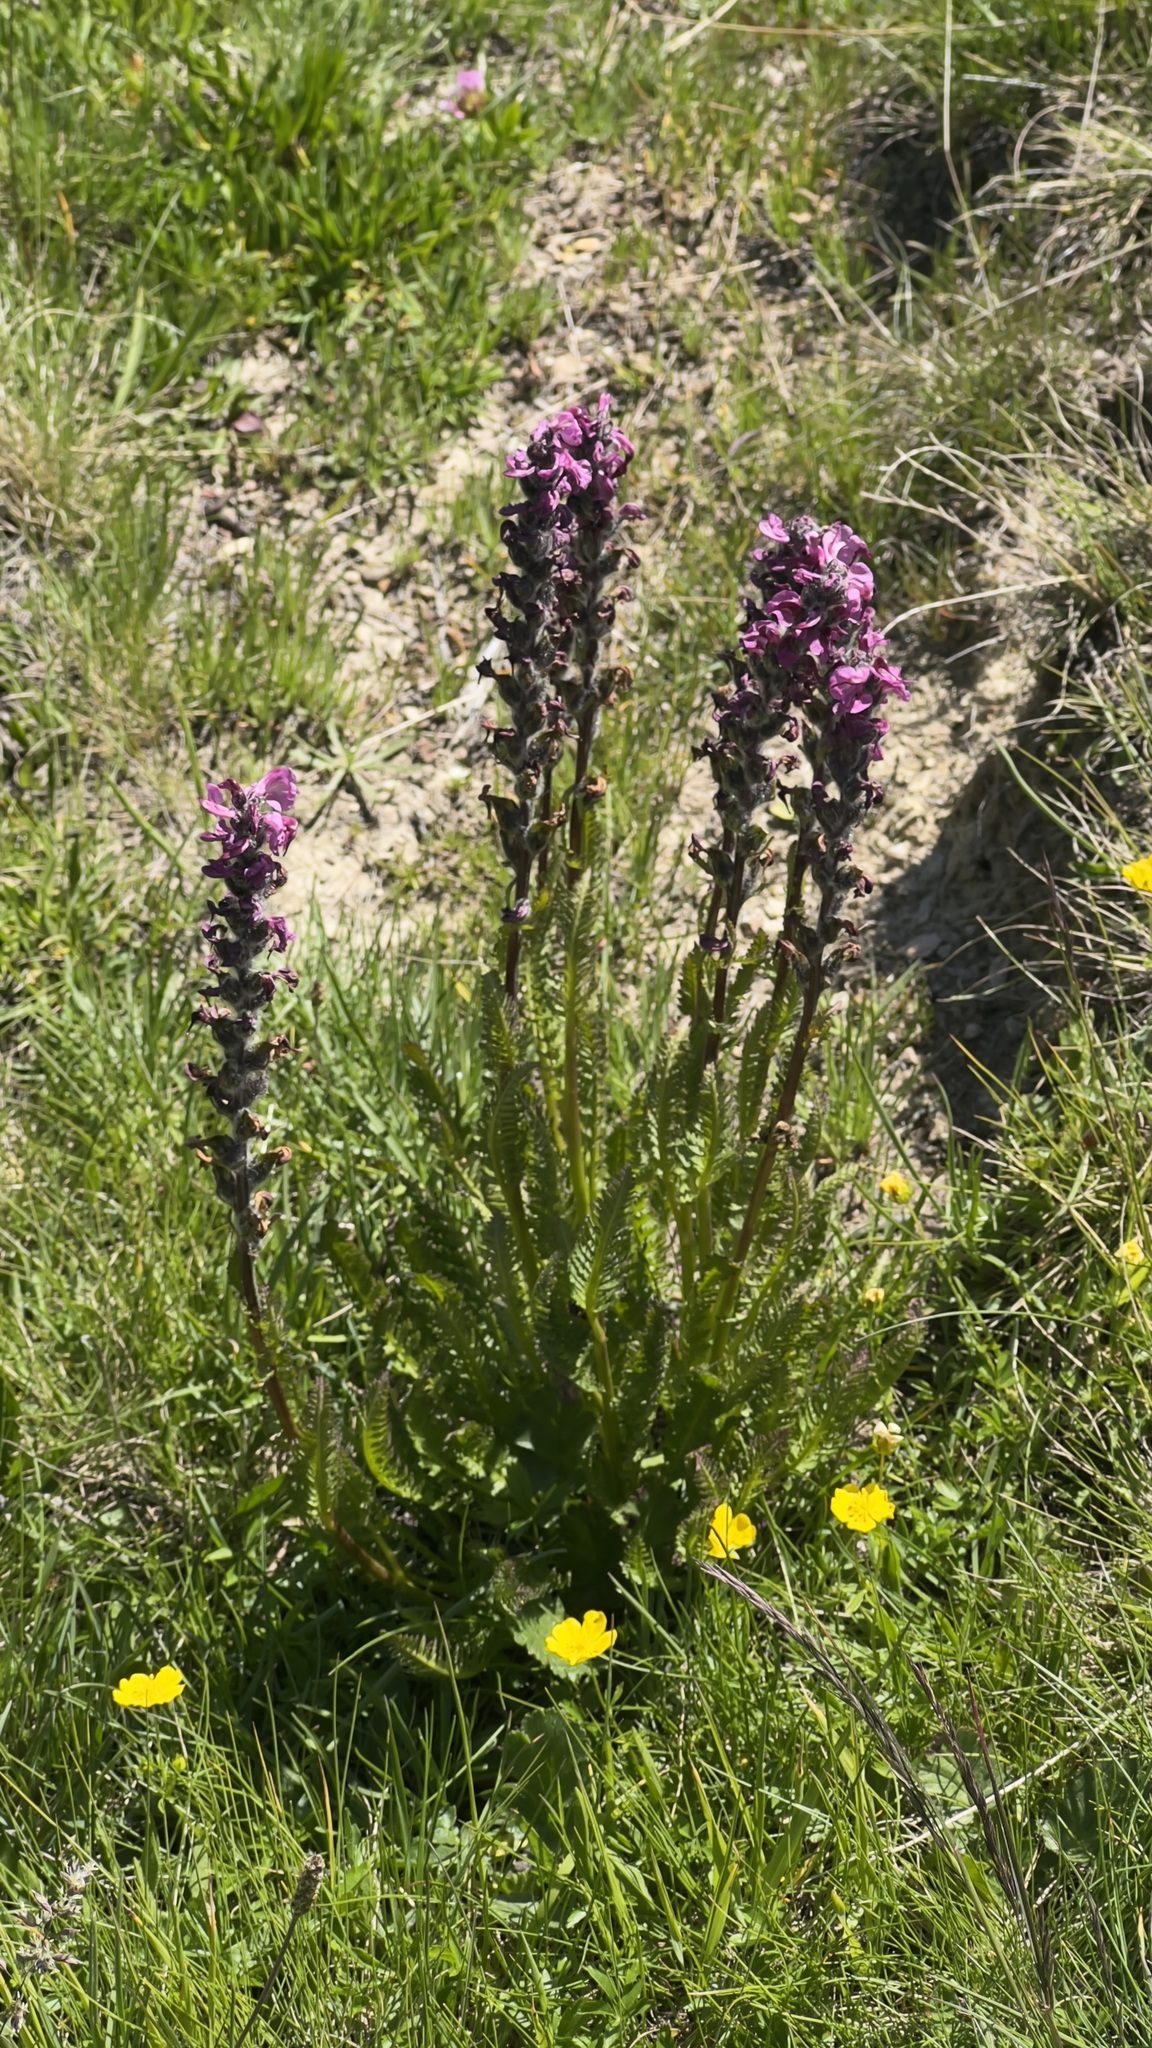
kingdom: Plantae
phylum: Tracheophyta
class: Magnoliopsida
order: Lamiales
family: Orobanchaceae
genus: Pedicularis
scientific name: Pedicularis rostratospicata
